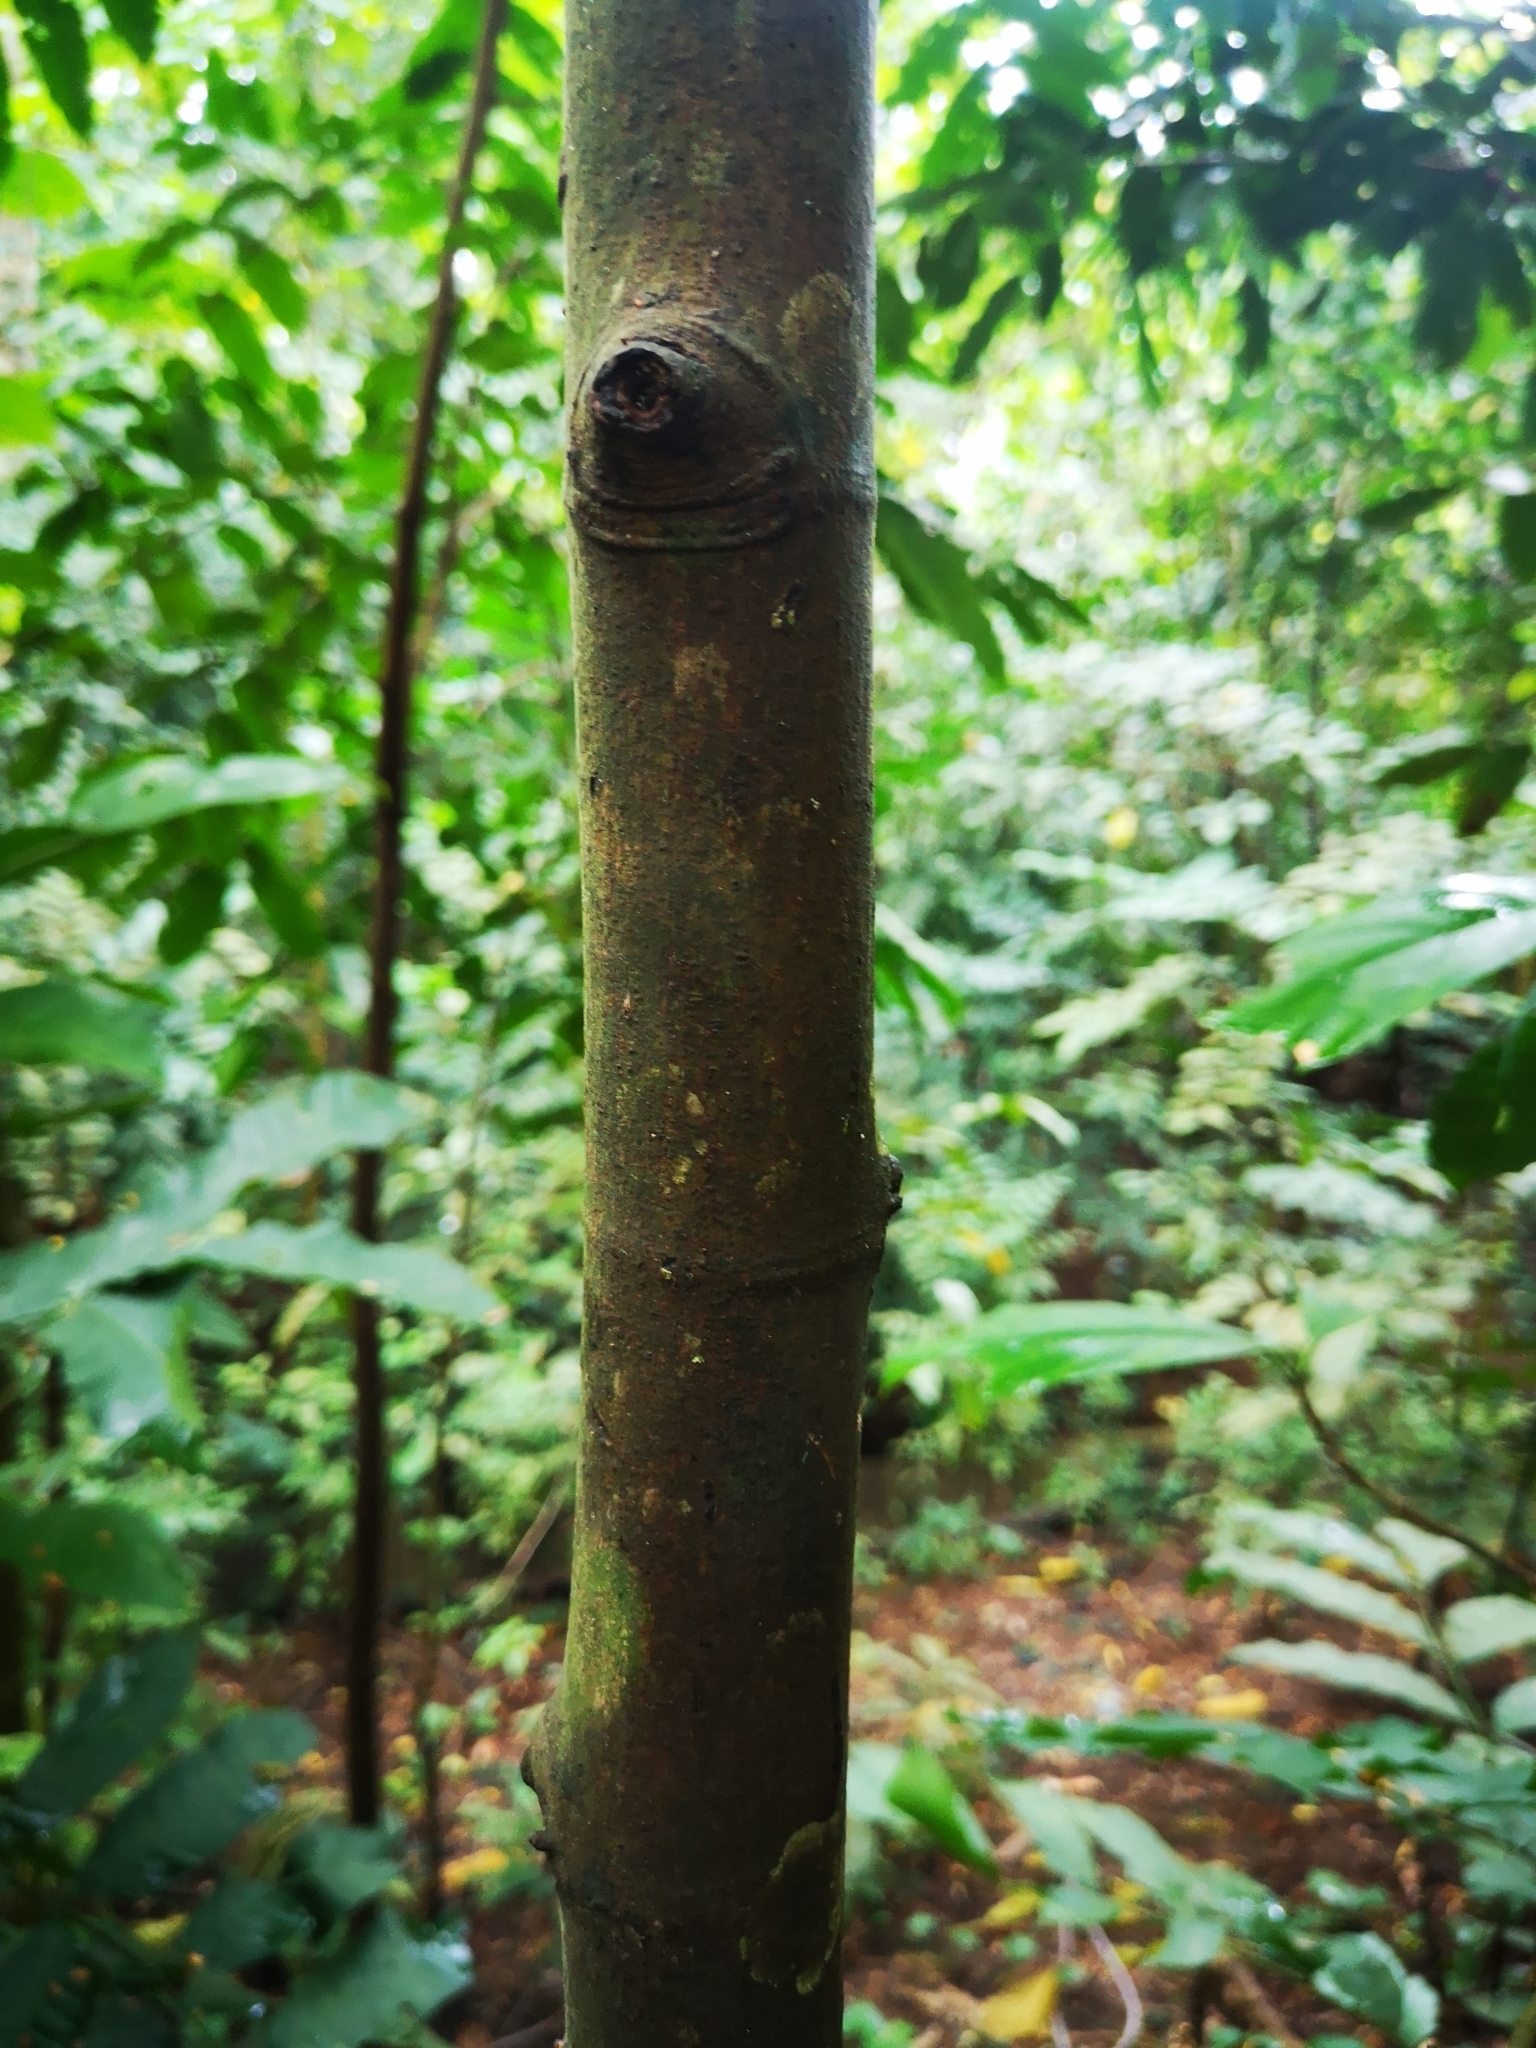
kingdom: Plantae
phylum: Tracheophyta
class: Magnoliopsida
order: Rosales
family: Moraceae
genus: Ficus
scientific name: Ficus fistulosa
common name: Figs
